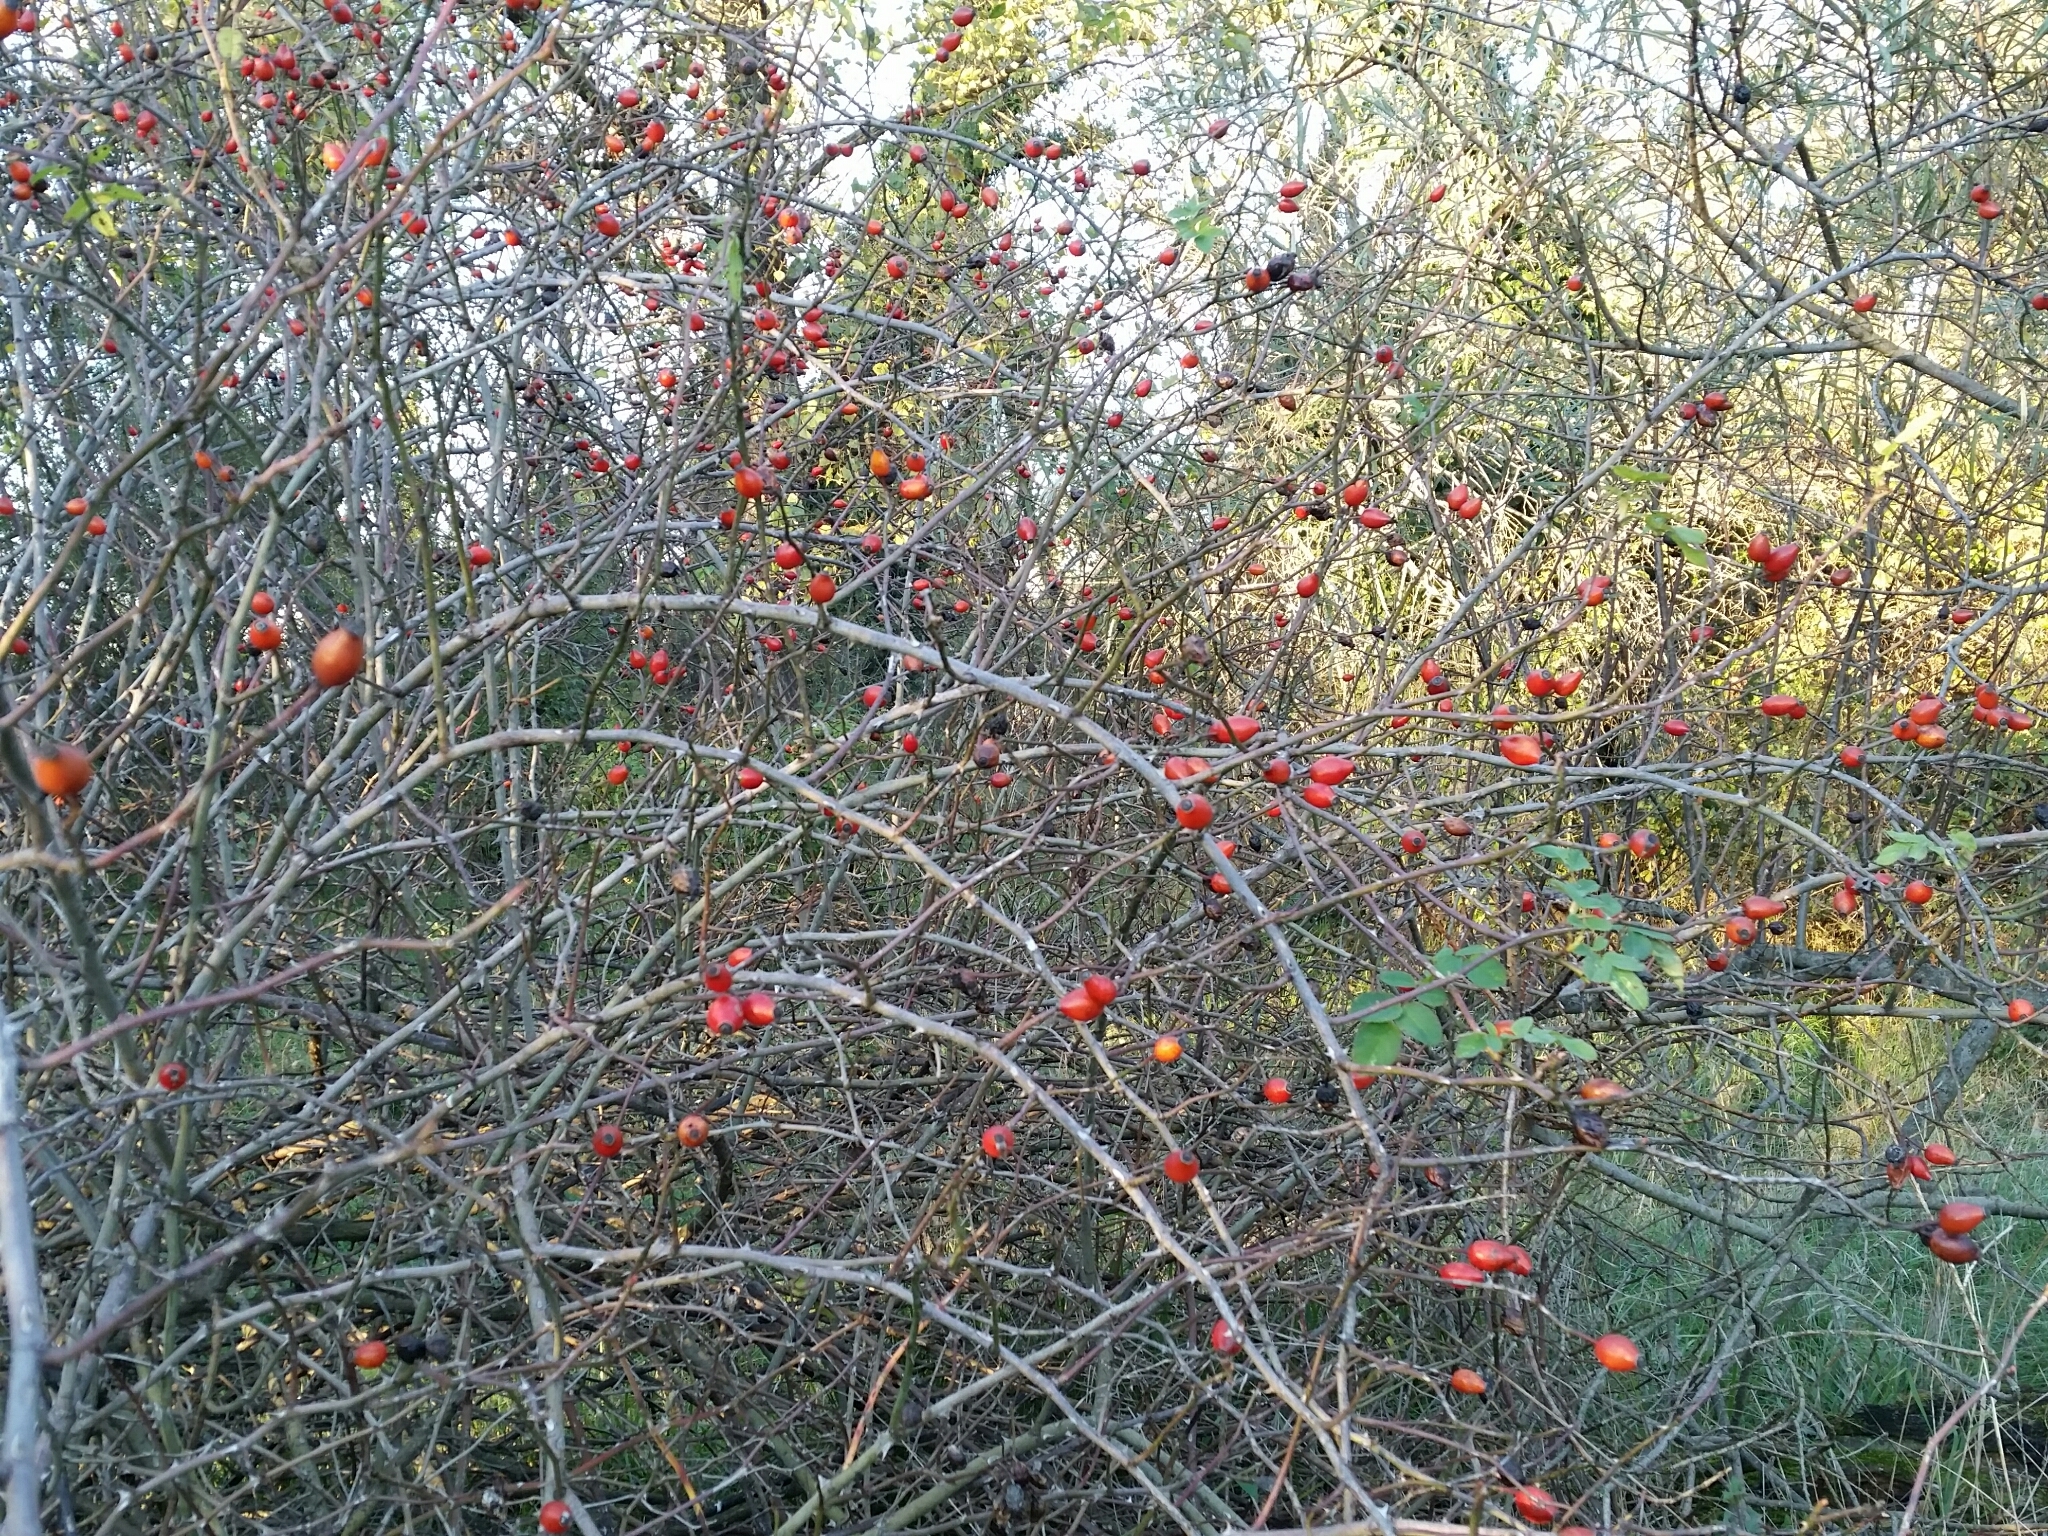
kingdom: Plantae
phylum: Tracheophyta
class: Magnoliopsida
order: Rosales
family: Rosaceae
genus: Rosa
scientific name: Rosa canina
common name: Dog rose
